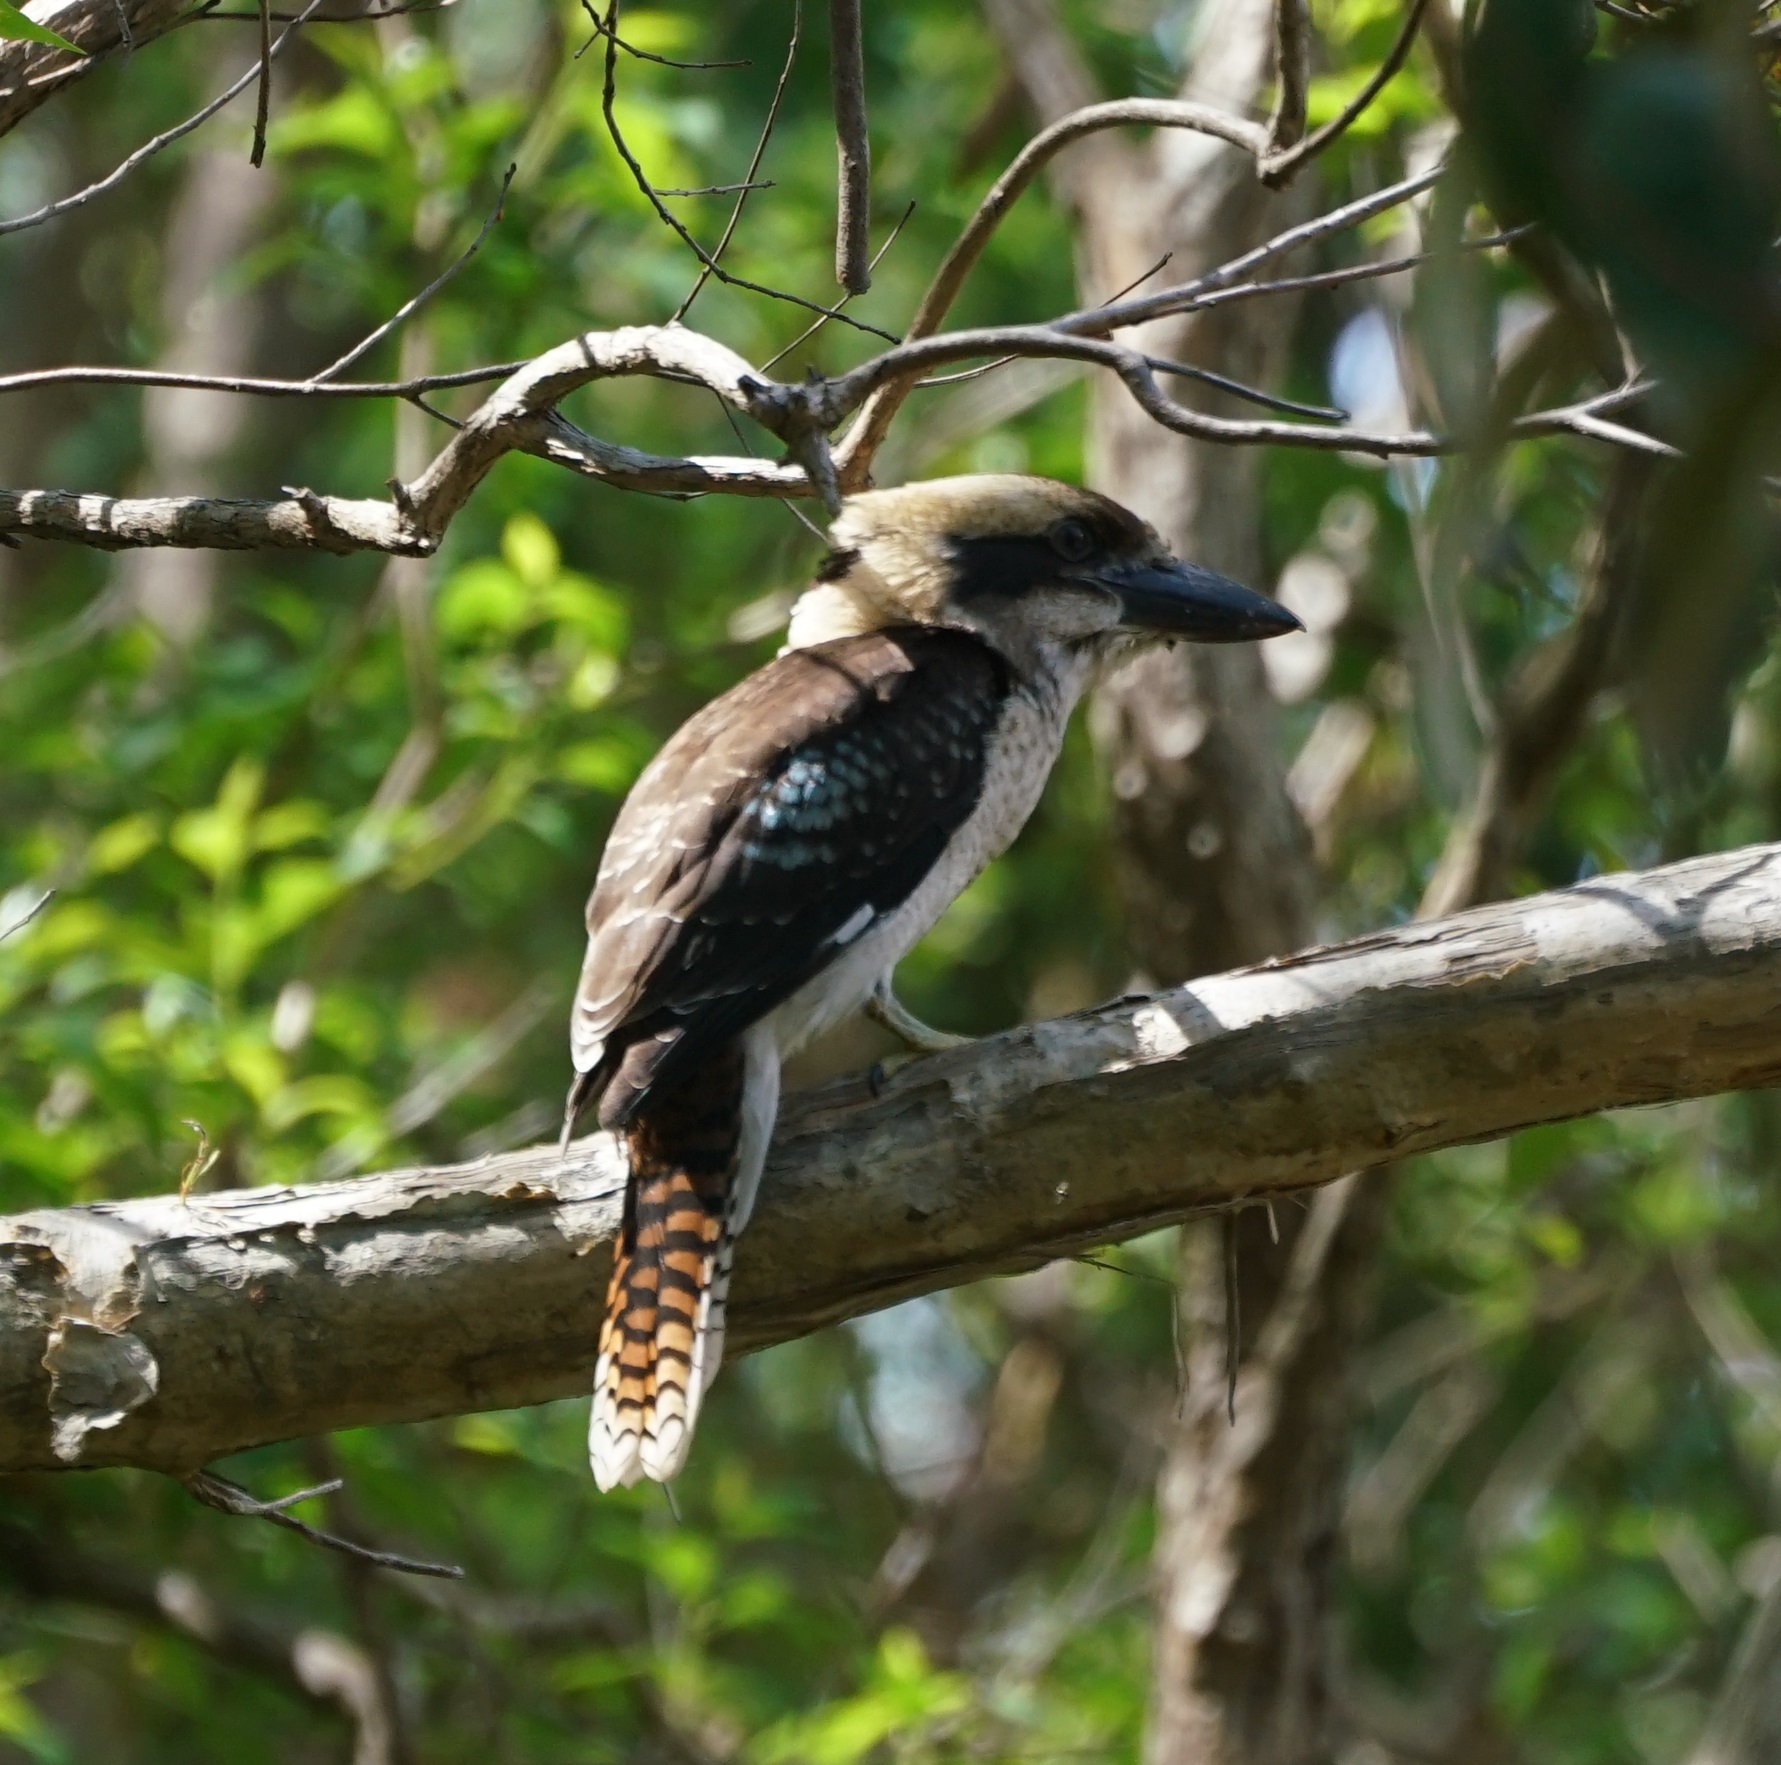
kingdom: Animalia
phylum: Chordata
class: Aves
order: Coraciiformes
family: Alcedinidae
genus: Dacelo
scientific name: Dacelo novaeguineae
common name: Laughing kookaburra
